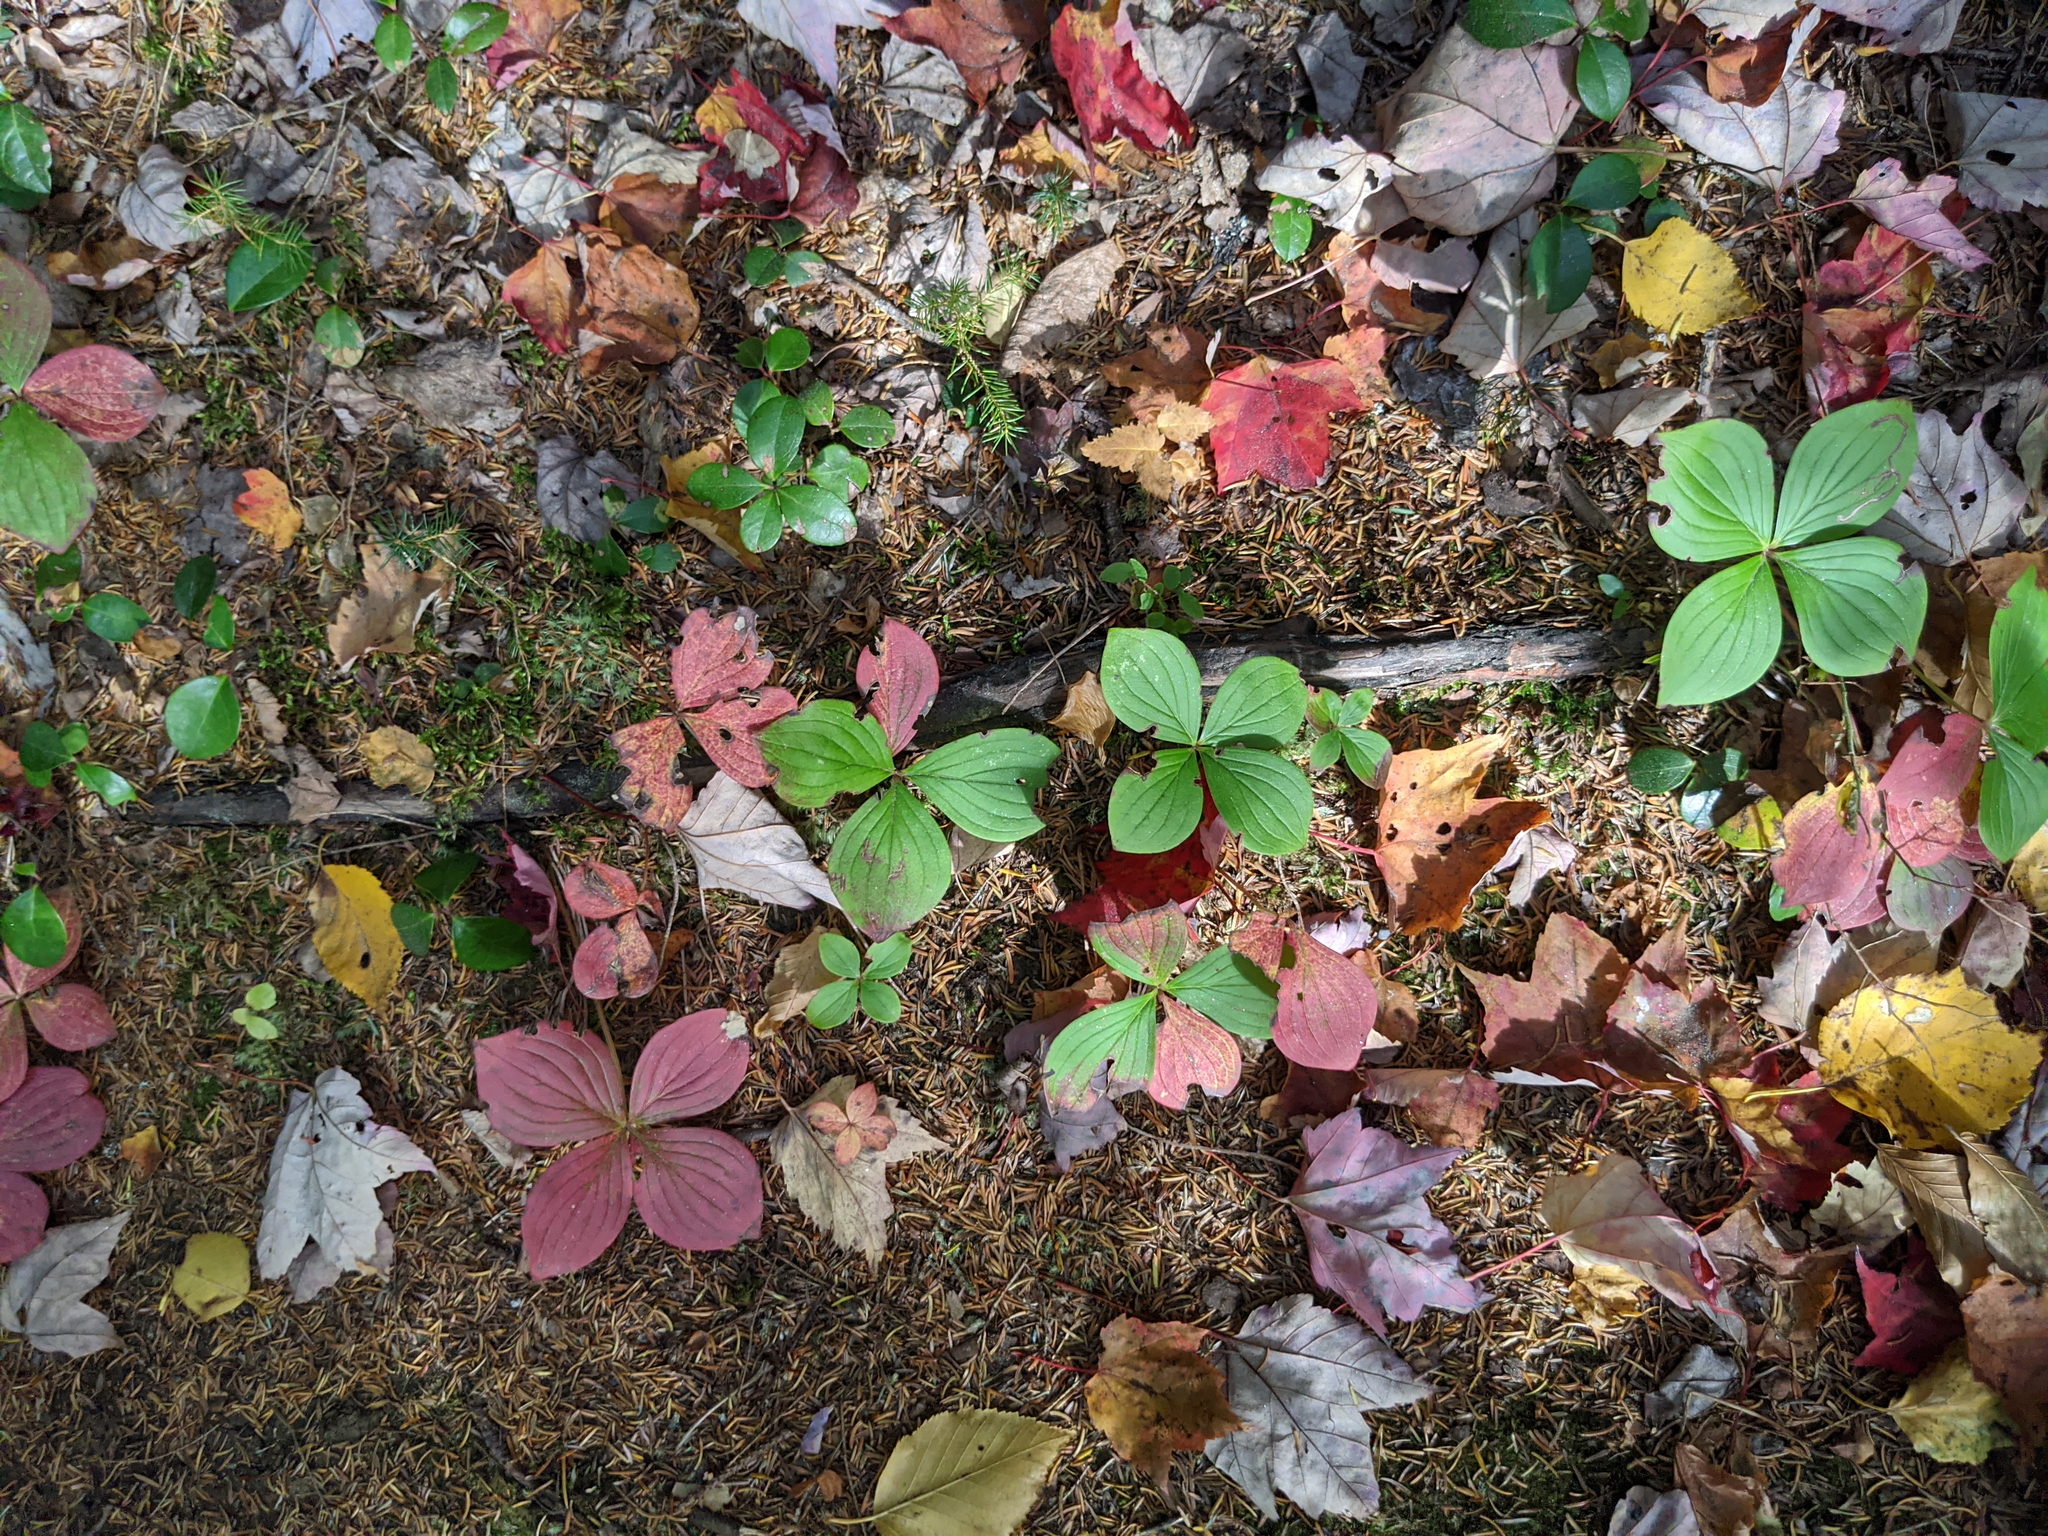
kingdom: Plantae
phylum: Tracheophyta
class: Magnoliopsida
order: Cornales
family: Cornaceae
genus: Cornus
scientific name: Cornus canadensis
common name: Creeping dogwood
